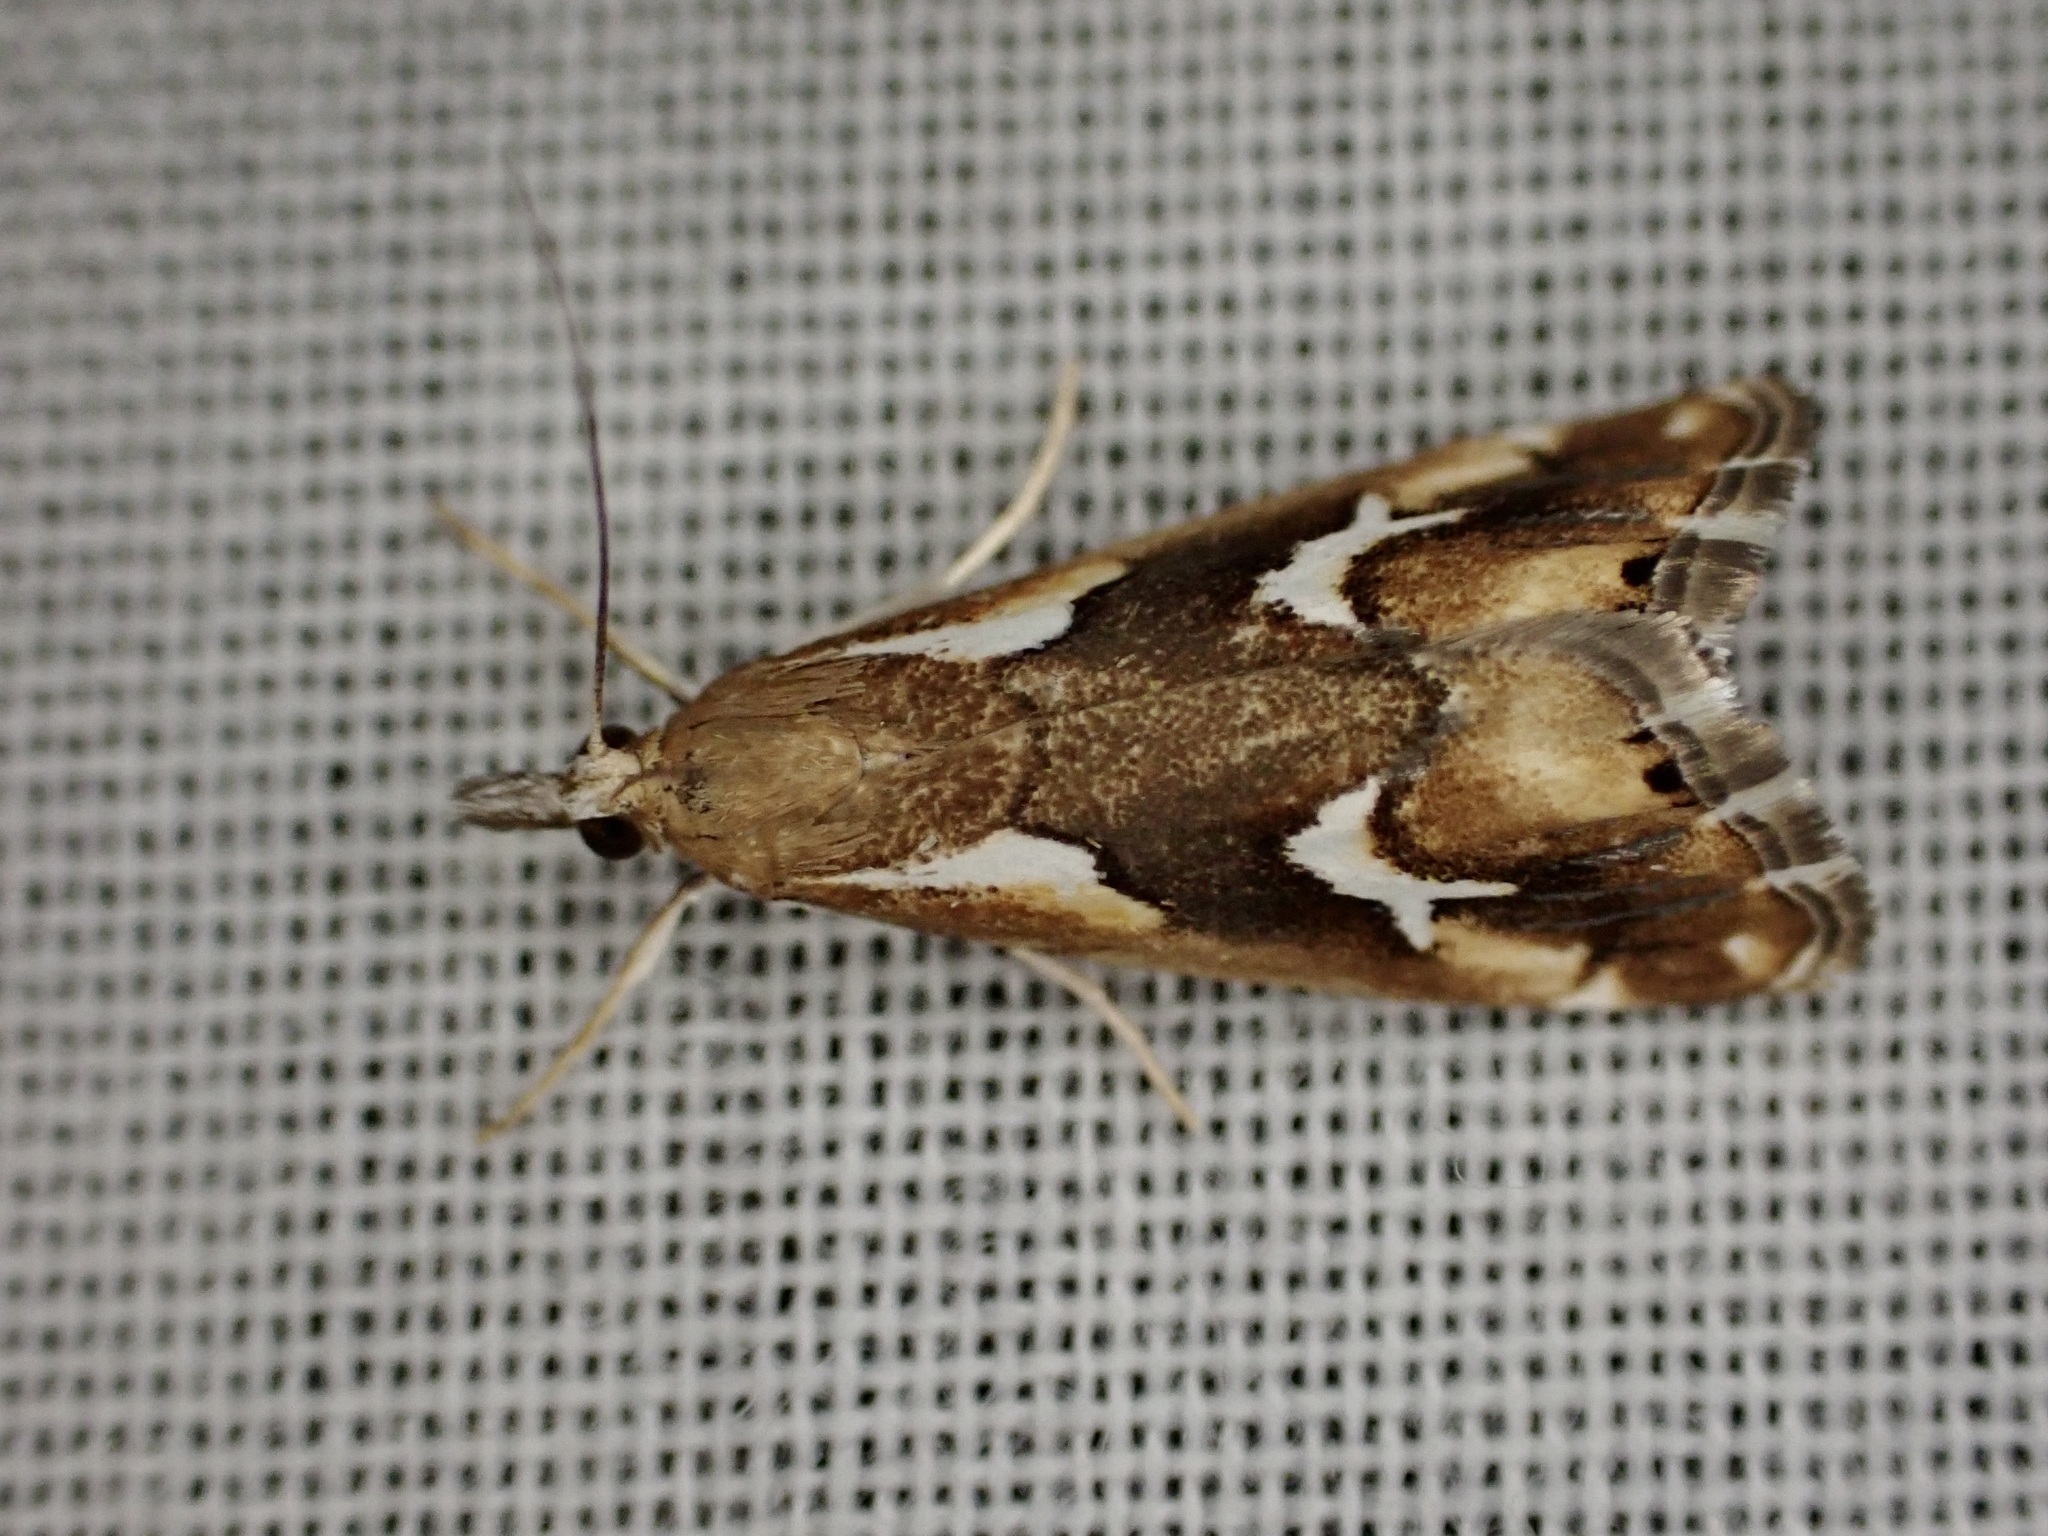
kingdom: Animalia
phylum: Arthropoda
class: Insecta
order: Lepidoptera
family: Crambidae
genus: Glaucocharis
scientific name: Glaucocharis interruptus
